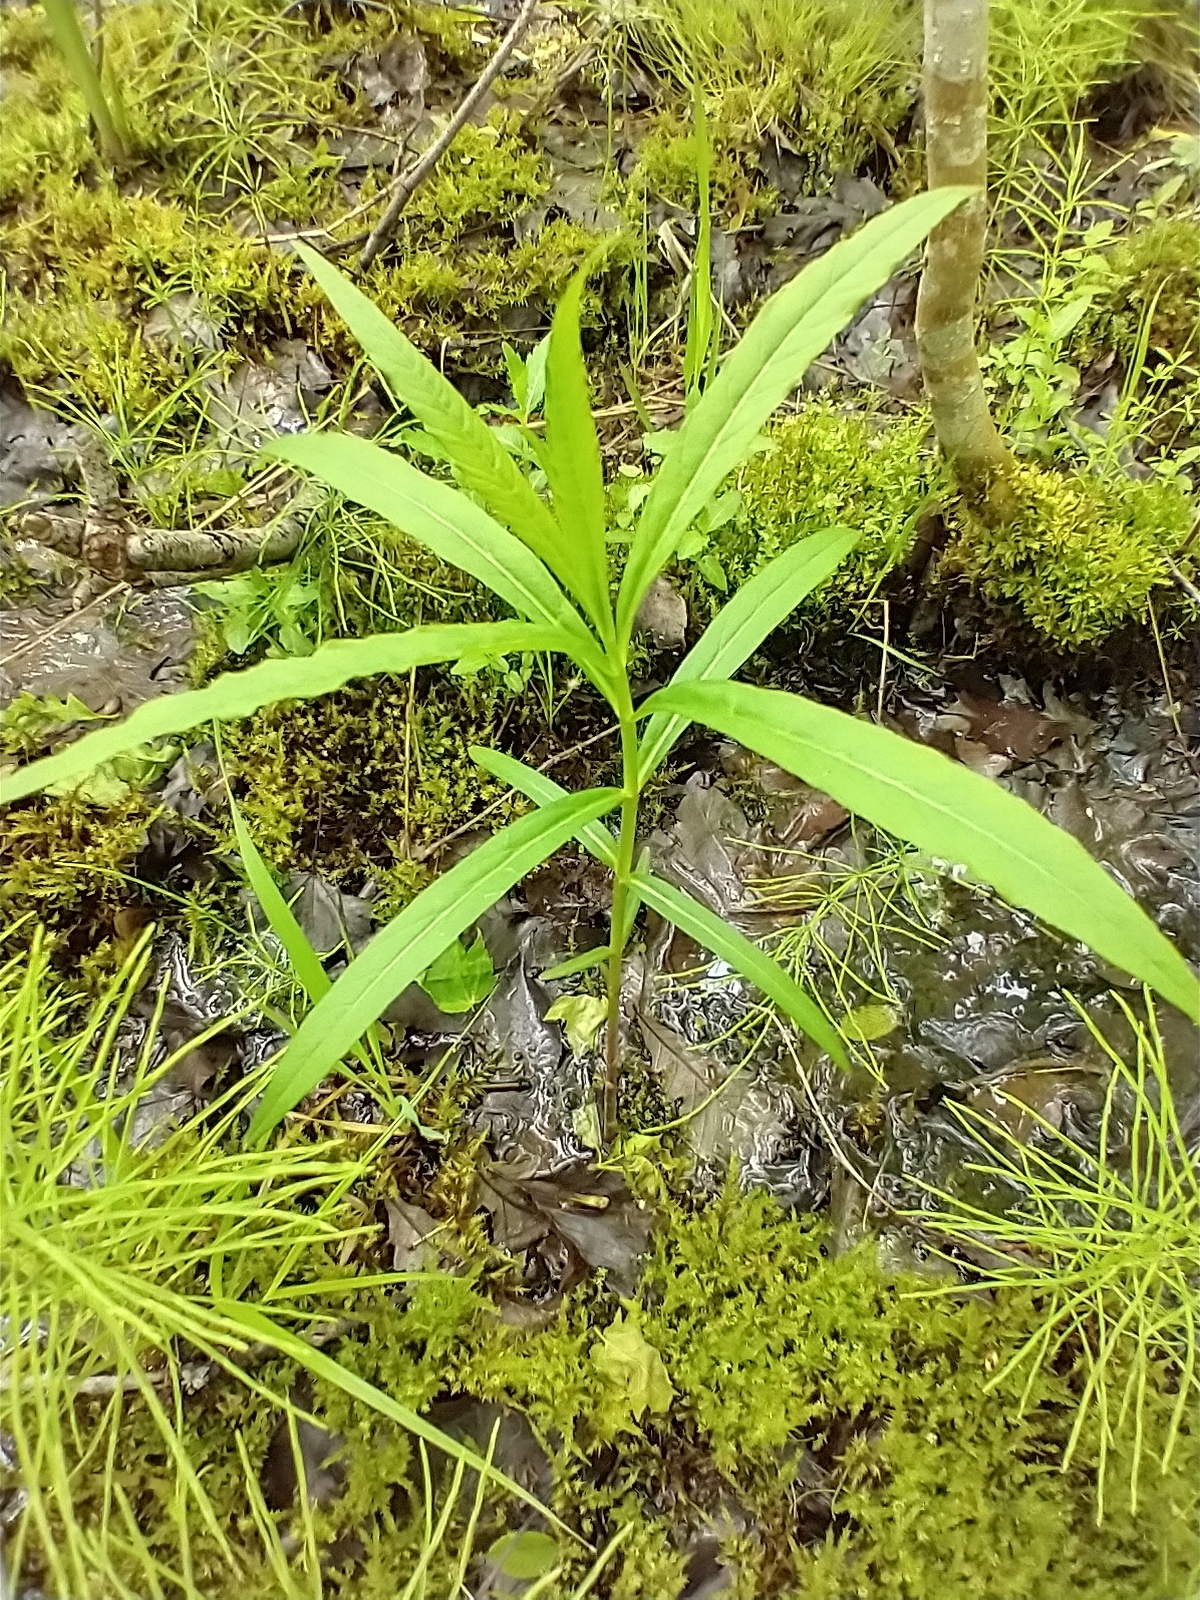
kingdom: Plantae
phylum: Tracheophyta
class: Magnoliopsida
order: Lamiales
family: Plantaginaceae
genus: Chelone
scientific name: Chelone glabra
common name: Snakehead
